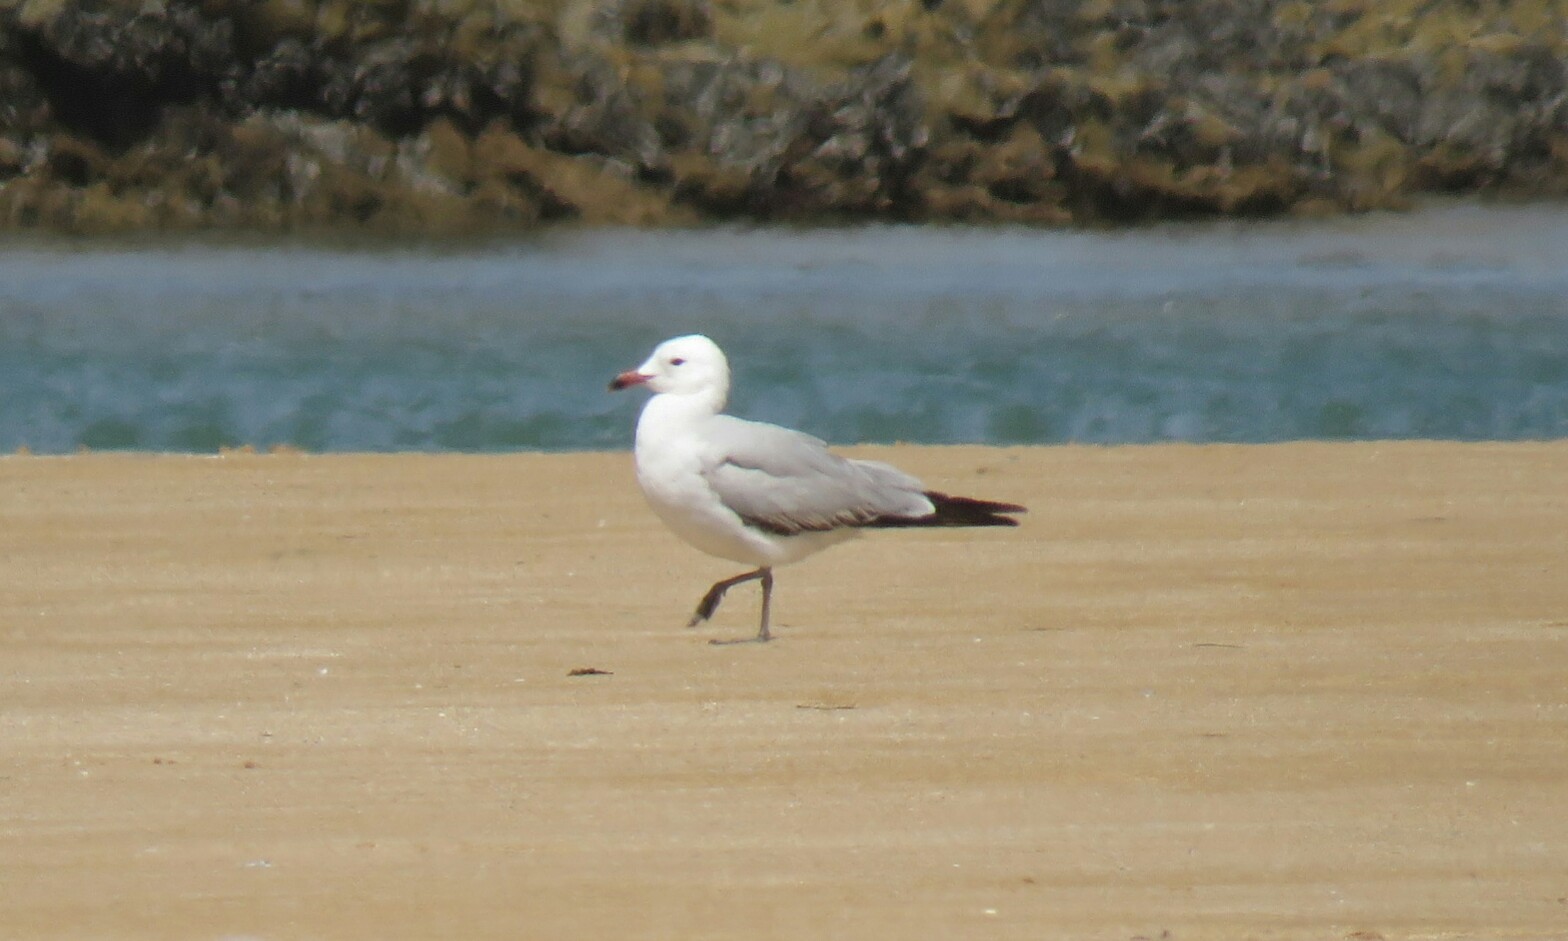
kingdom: Animalia
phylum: Chordata
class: Aves
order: Charadriiformes
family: Laridae
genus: Ichthyaetus
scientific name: Ichthyaetus audouinii
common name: Audouin's gull
